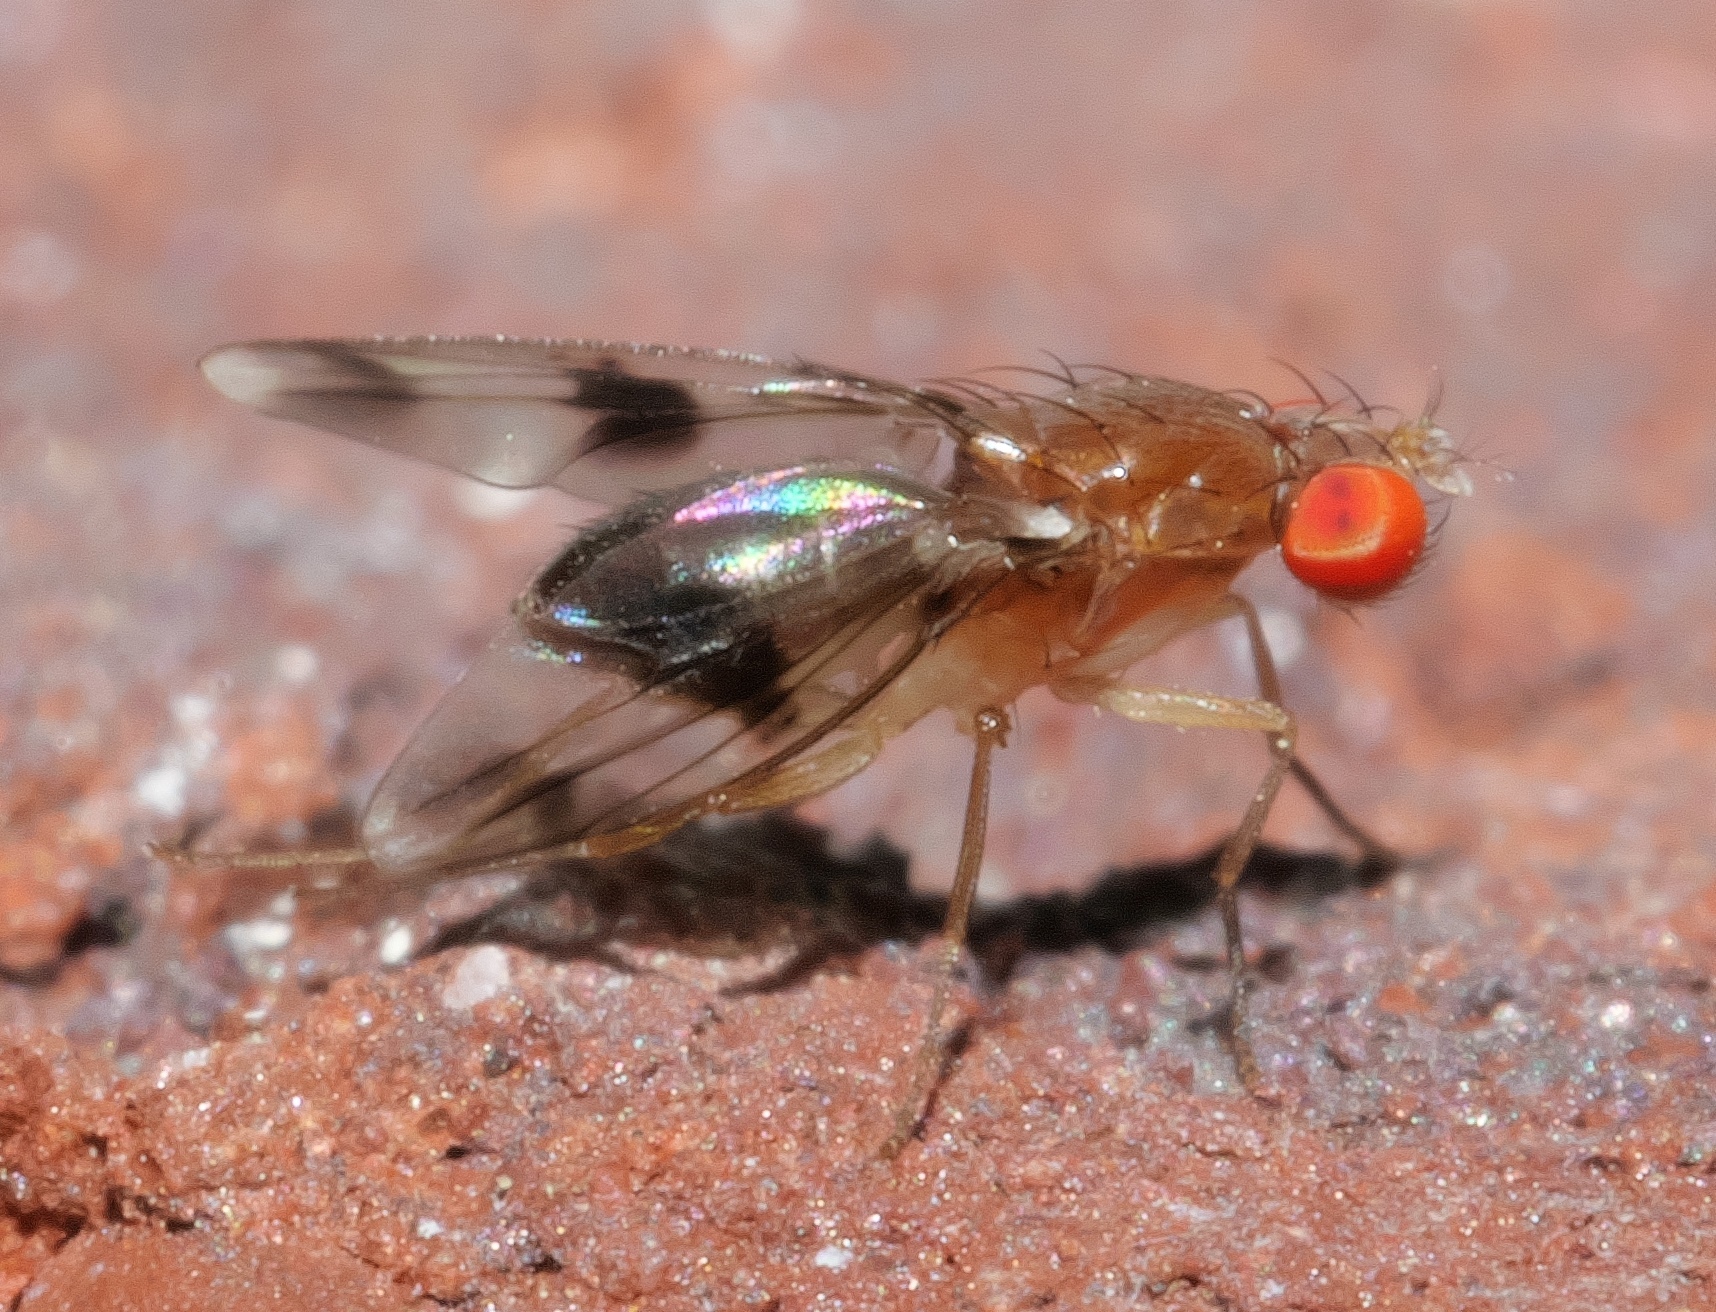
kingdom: Animalia
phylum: Arthropoda
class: Insecta
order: Diptera
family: Drosophilidae
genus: Chymomyza
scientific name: Chymomyza amoena
